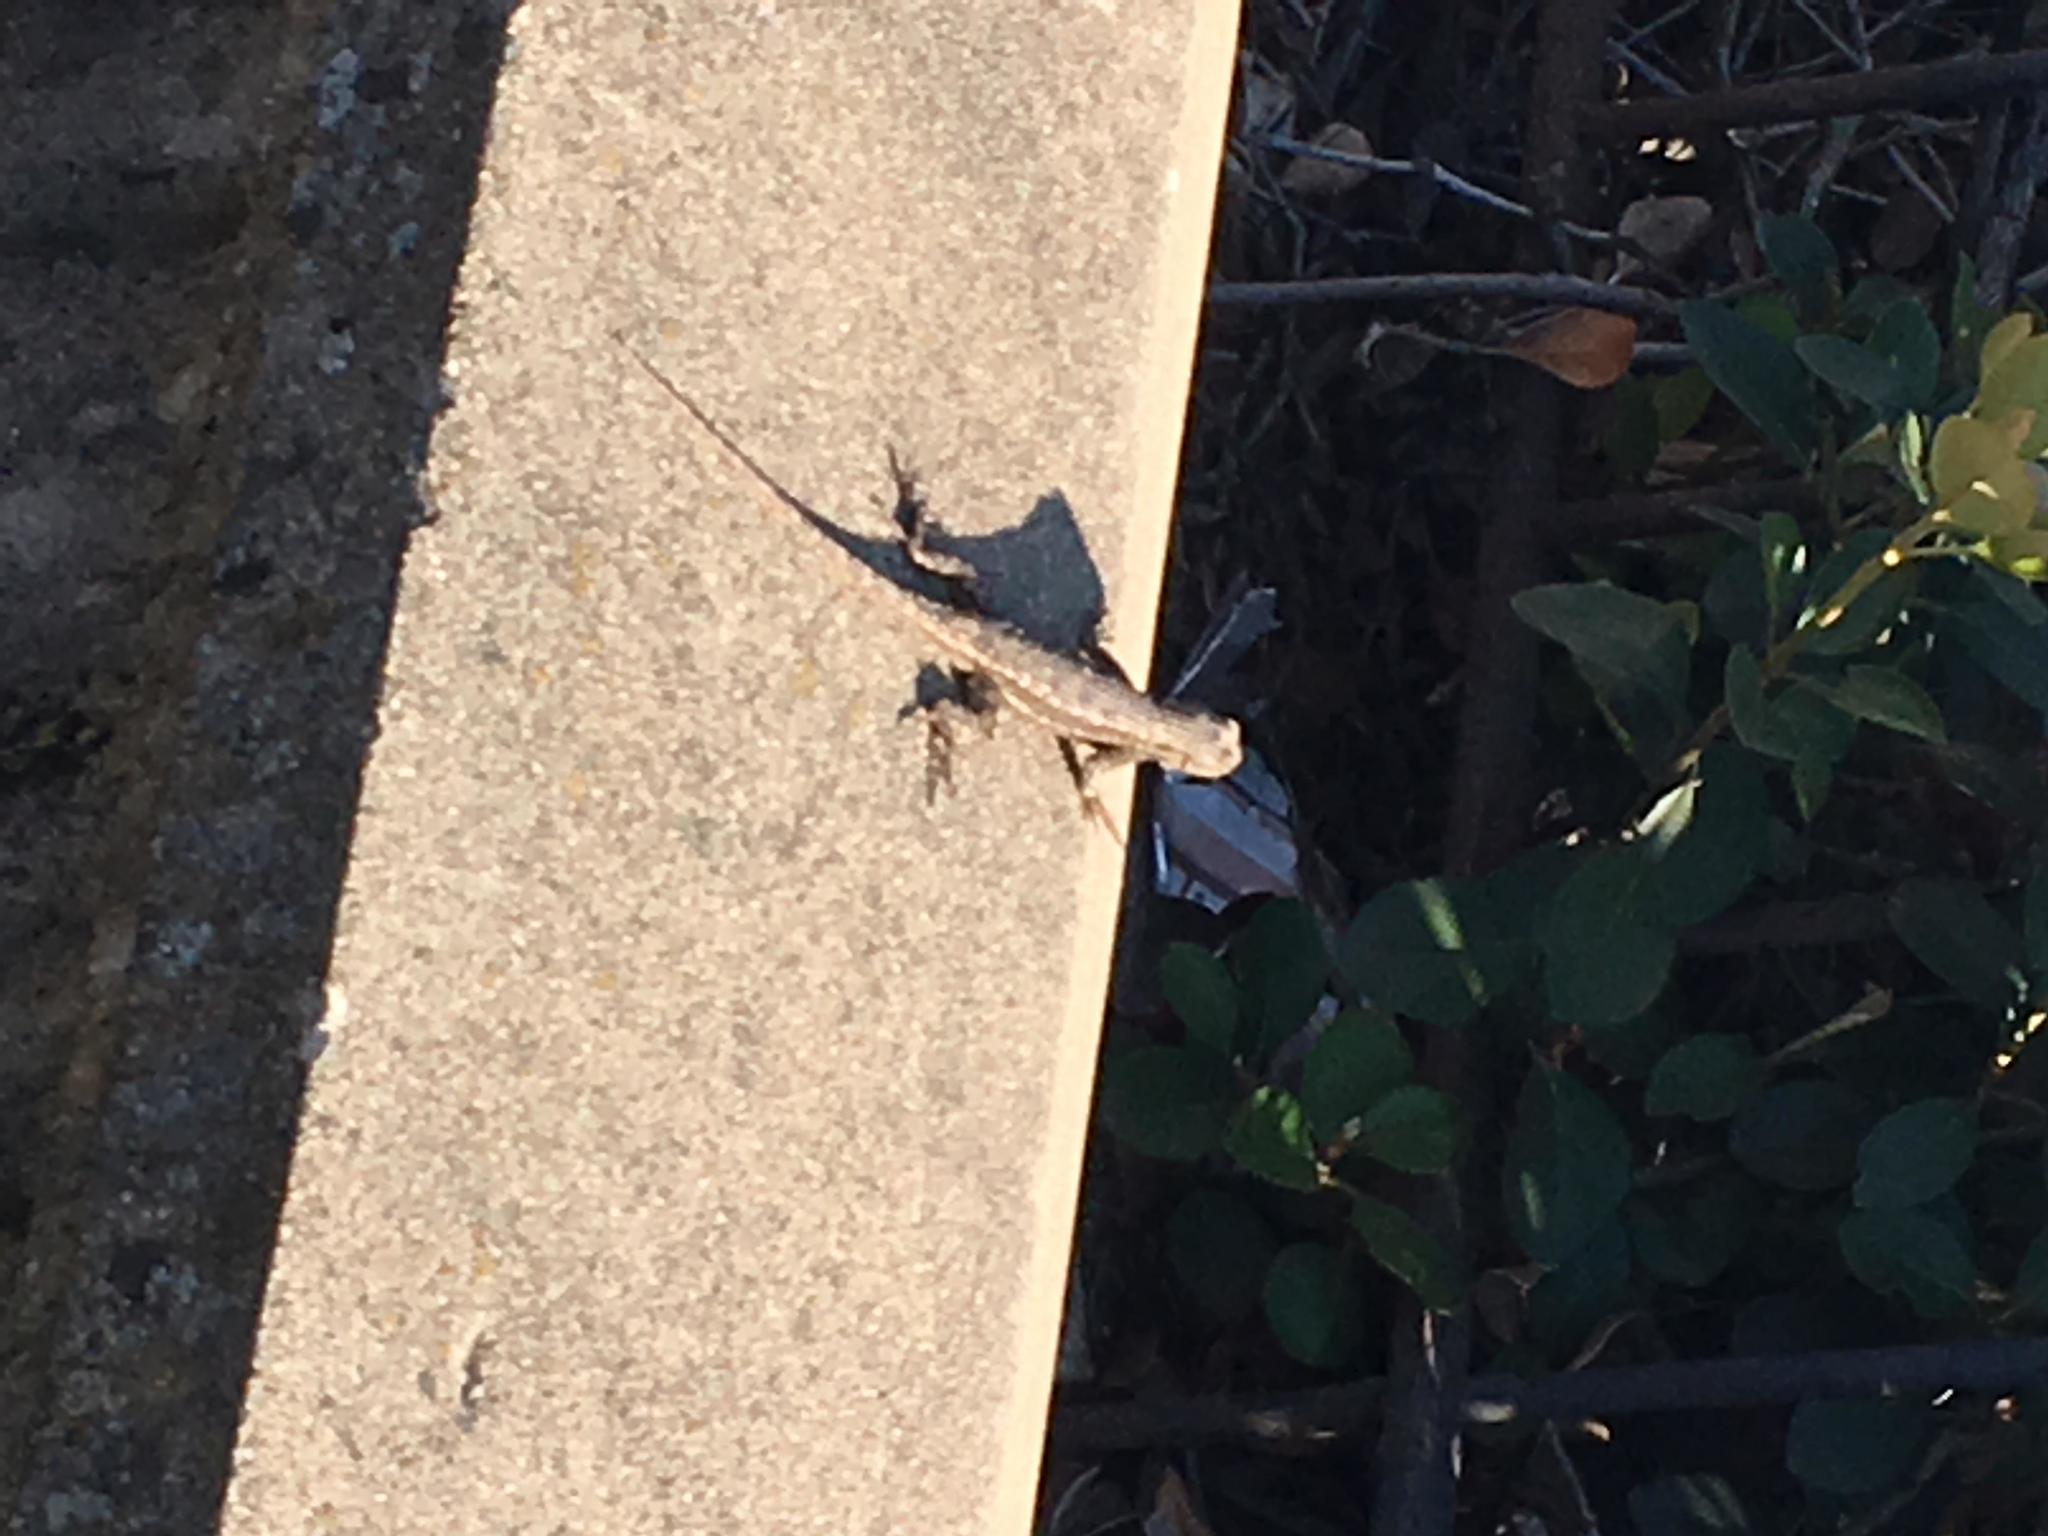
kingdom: Animalia
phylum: Chordata
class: Squamata
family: Phrynosomatidae
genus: Sceloporus
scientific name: Sceloporus occidentalis
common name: Western fence lizard
